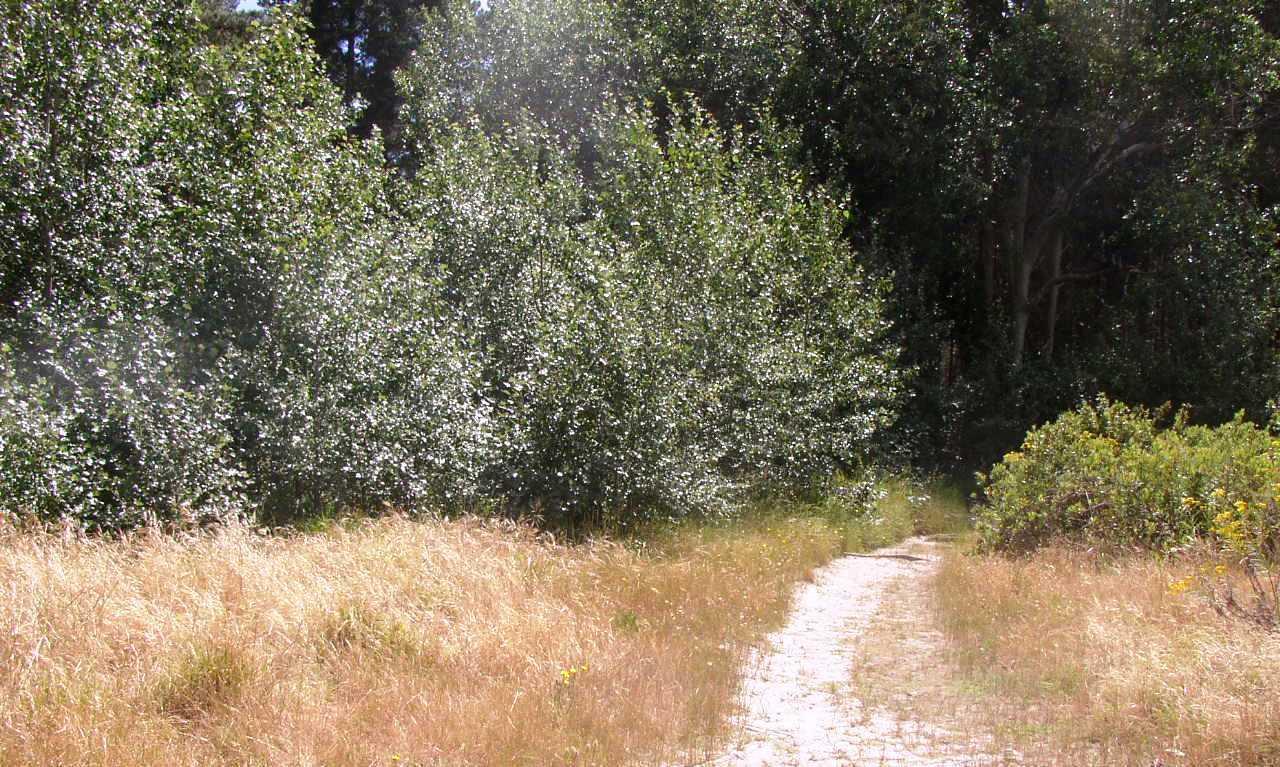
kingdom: Plantae
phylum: Tracheophyta
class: Magnoliopsida
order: Malpighiales
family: Salicaceae
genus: Populus
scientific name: Populus canescens
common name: Gray poplar
